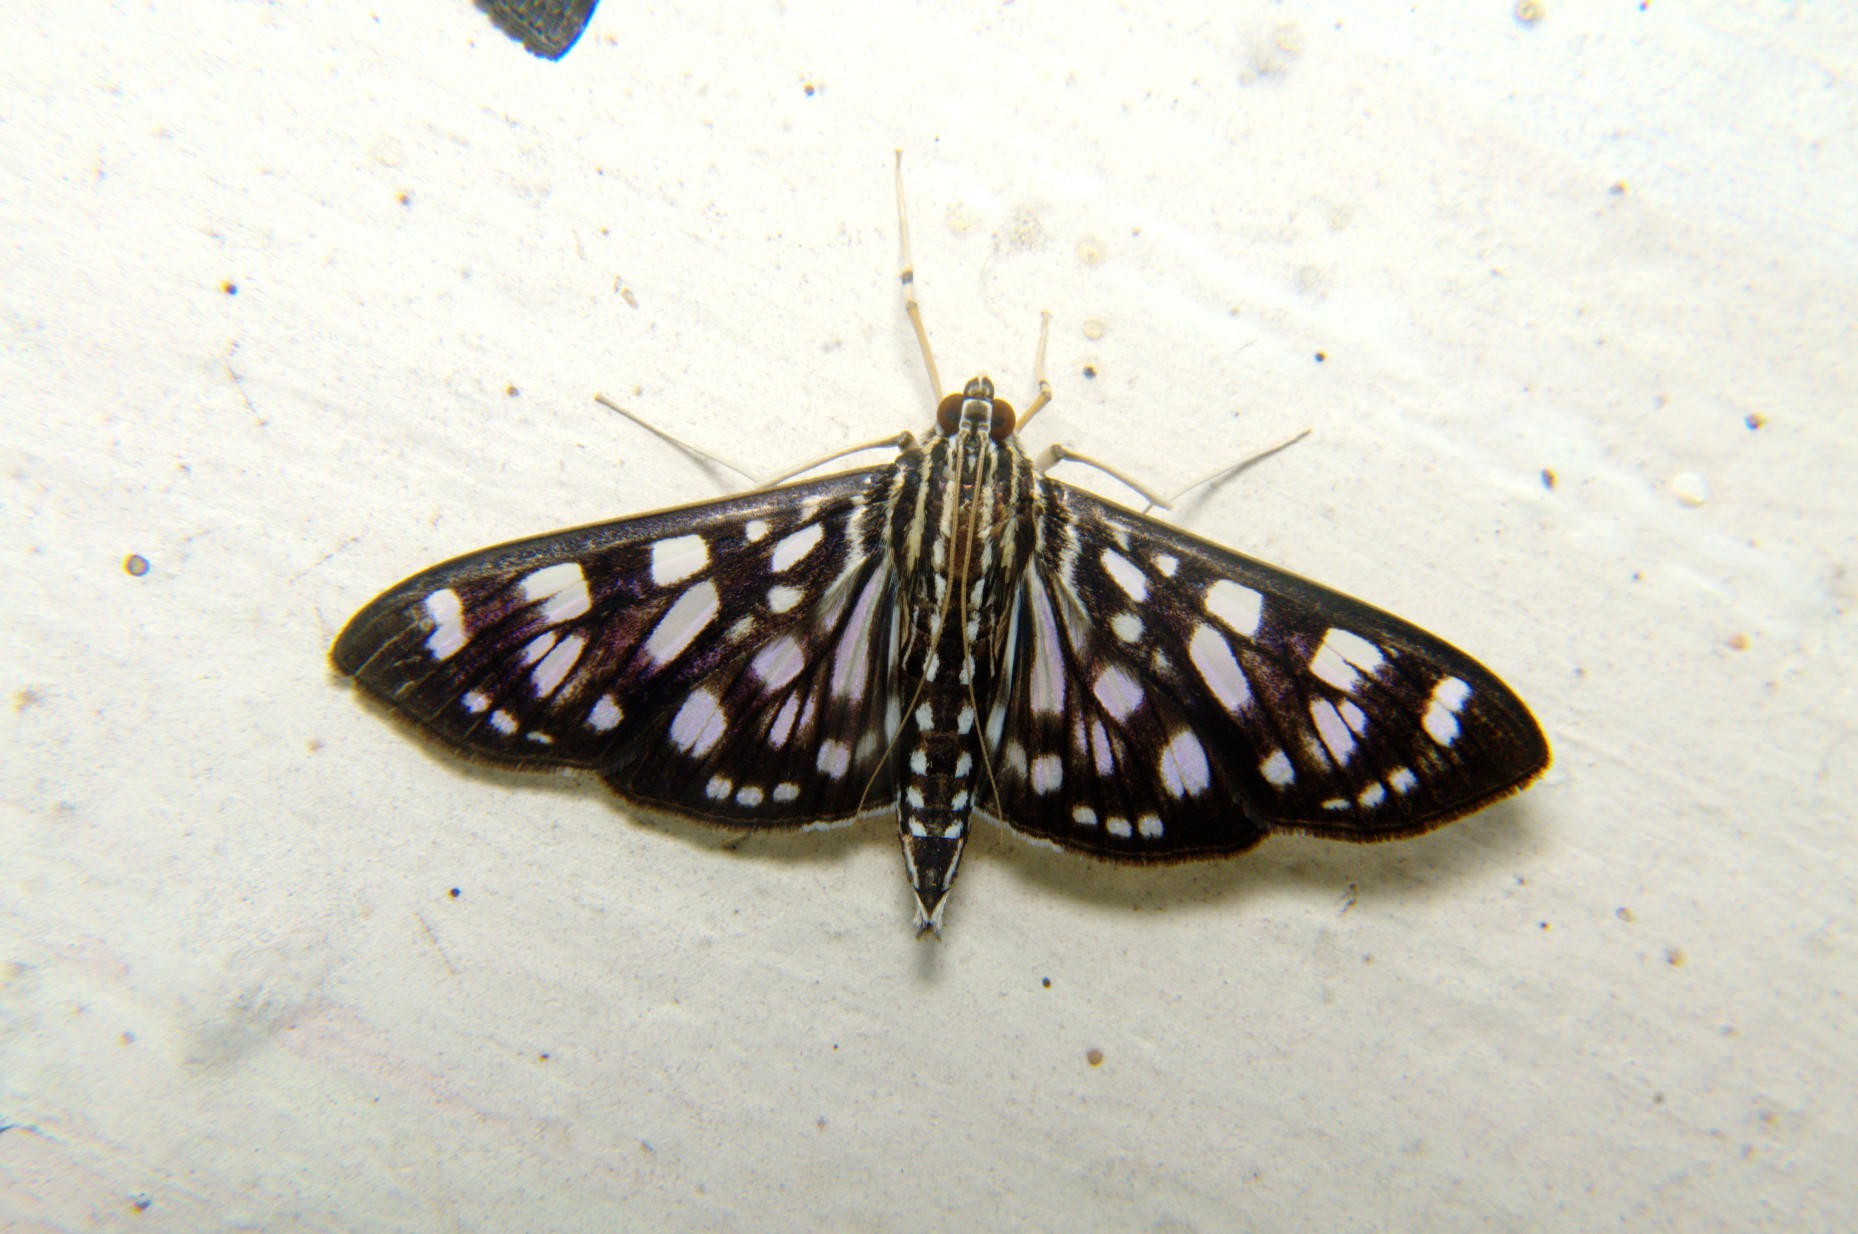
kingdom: Animalia
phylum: Arthropoda
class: Insecta
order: Lepidoptera
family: Crambidae
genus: Pygospila
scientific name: Pygospila tyres
